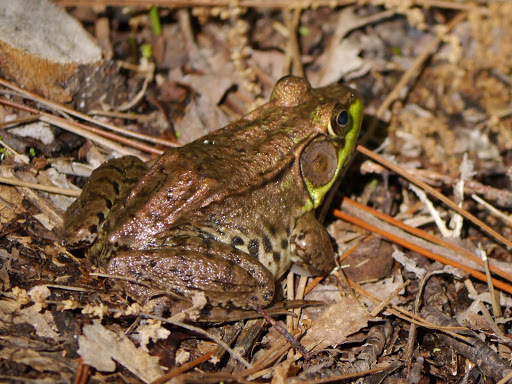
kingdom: Animalia
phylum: Chordata
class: Amphibia
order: Anura
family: Ranidae
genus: Lithobates
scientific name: Lithobates clamitans
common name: Green frog
